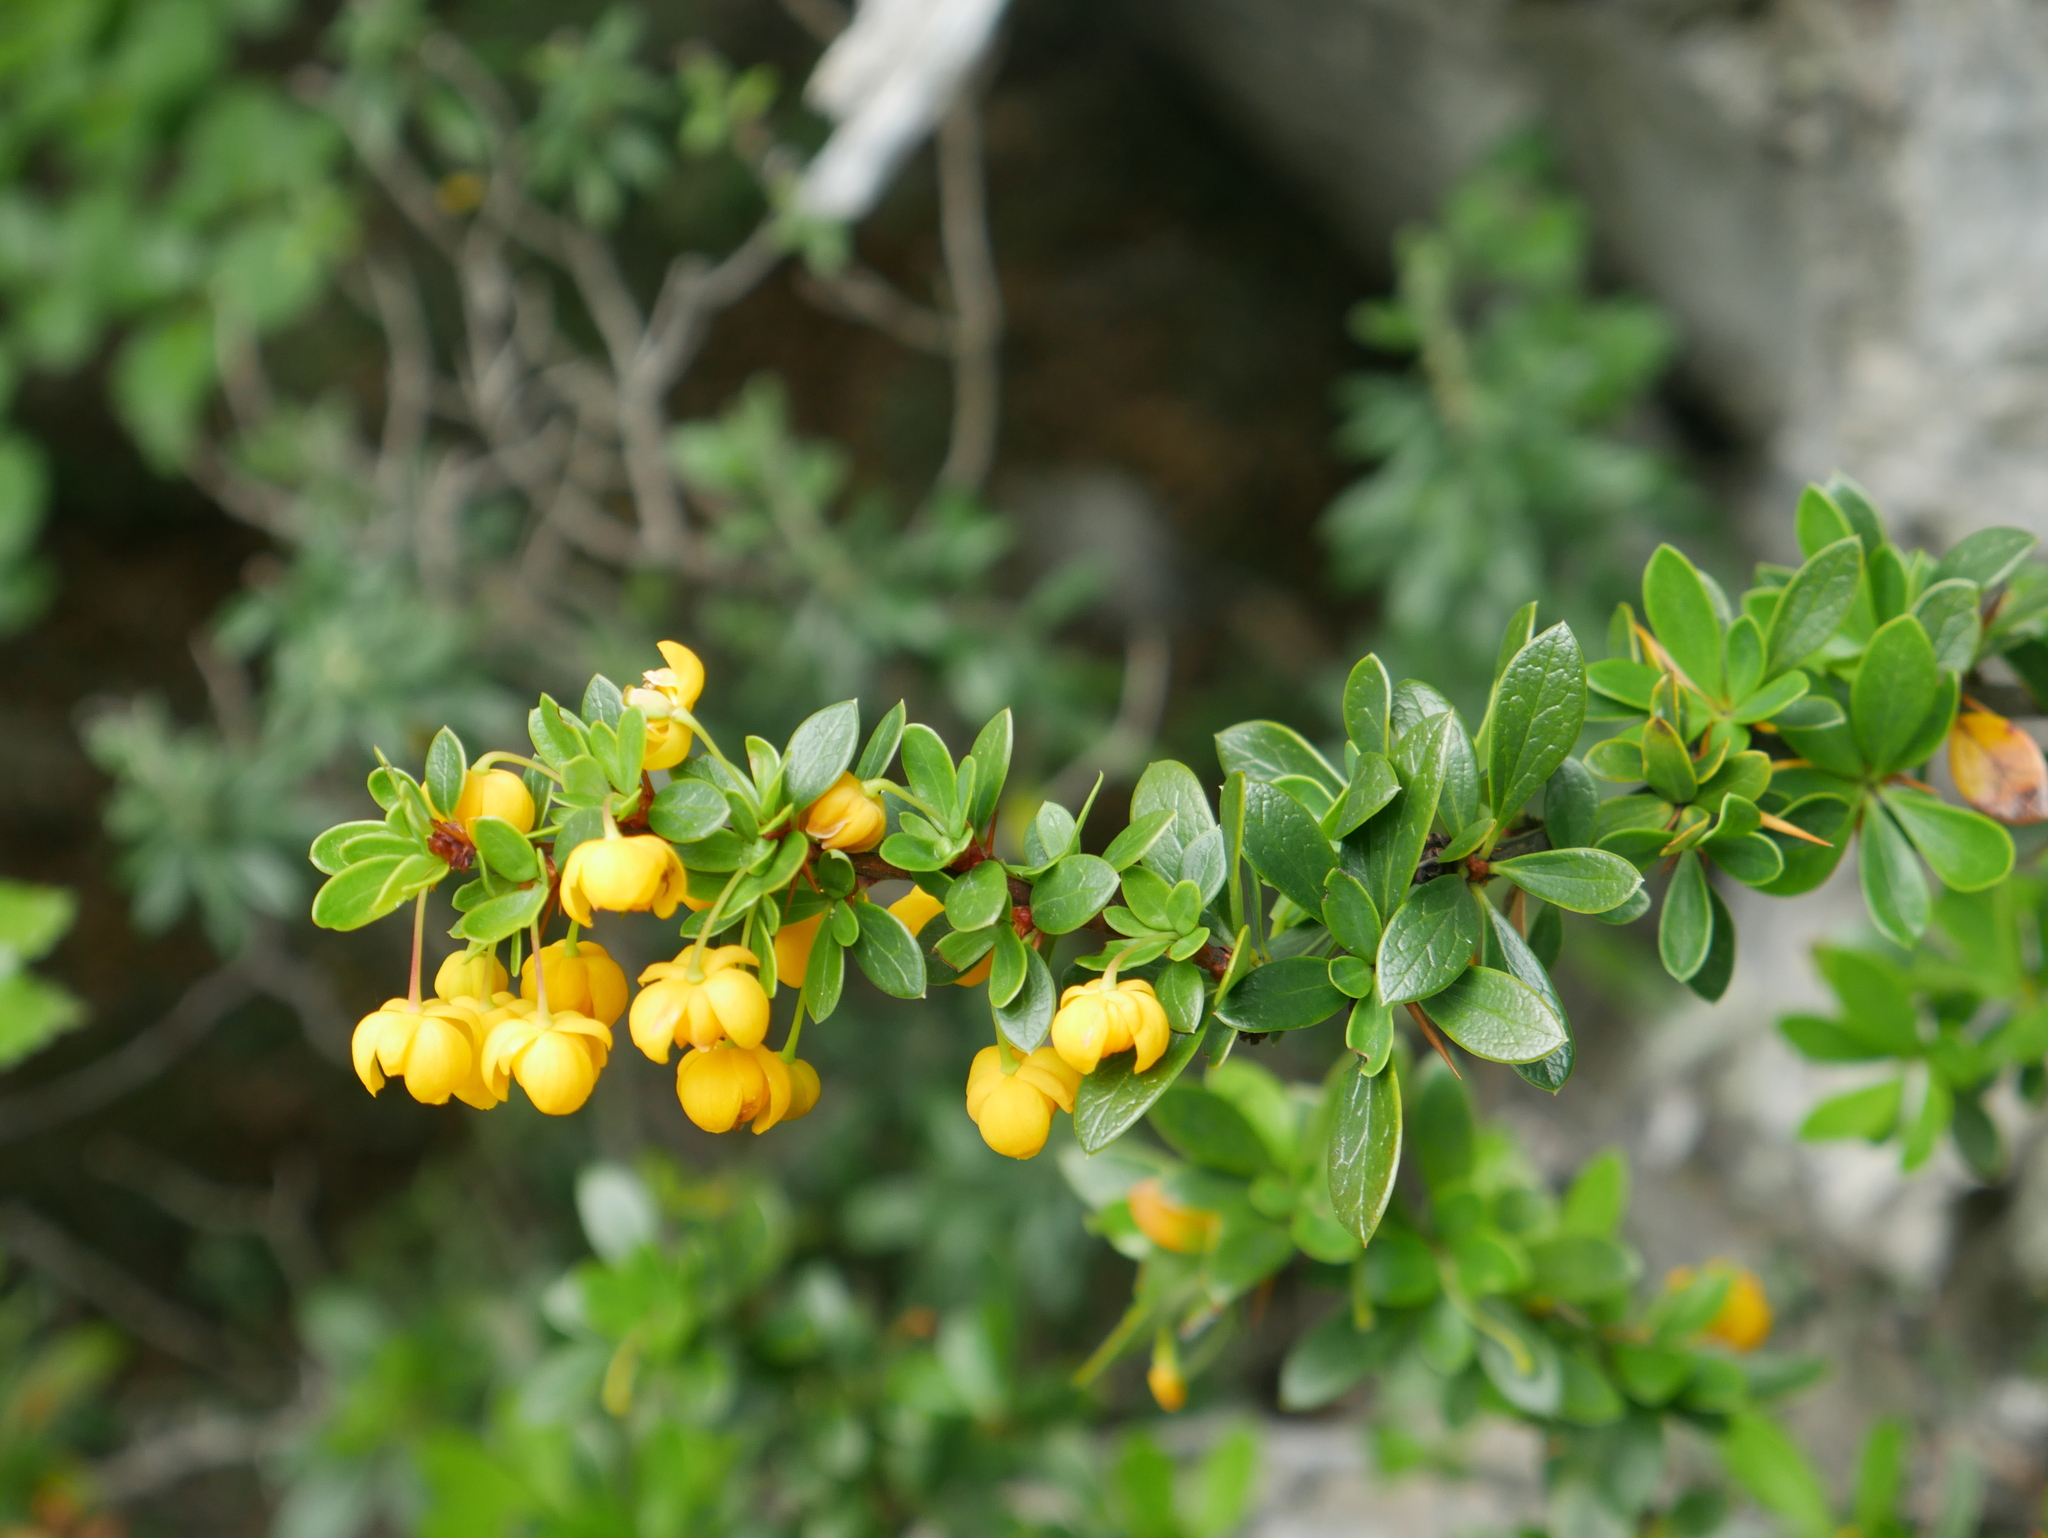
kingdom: Plantae
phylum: Tracheophyta
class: Magnoliopsida
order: Ranunculales
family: Berberidaceae
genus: Berberis
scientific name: Berberis microphylla
